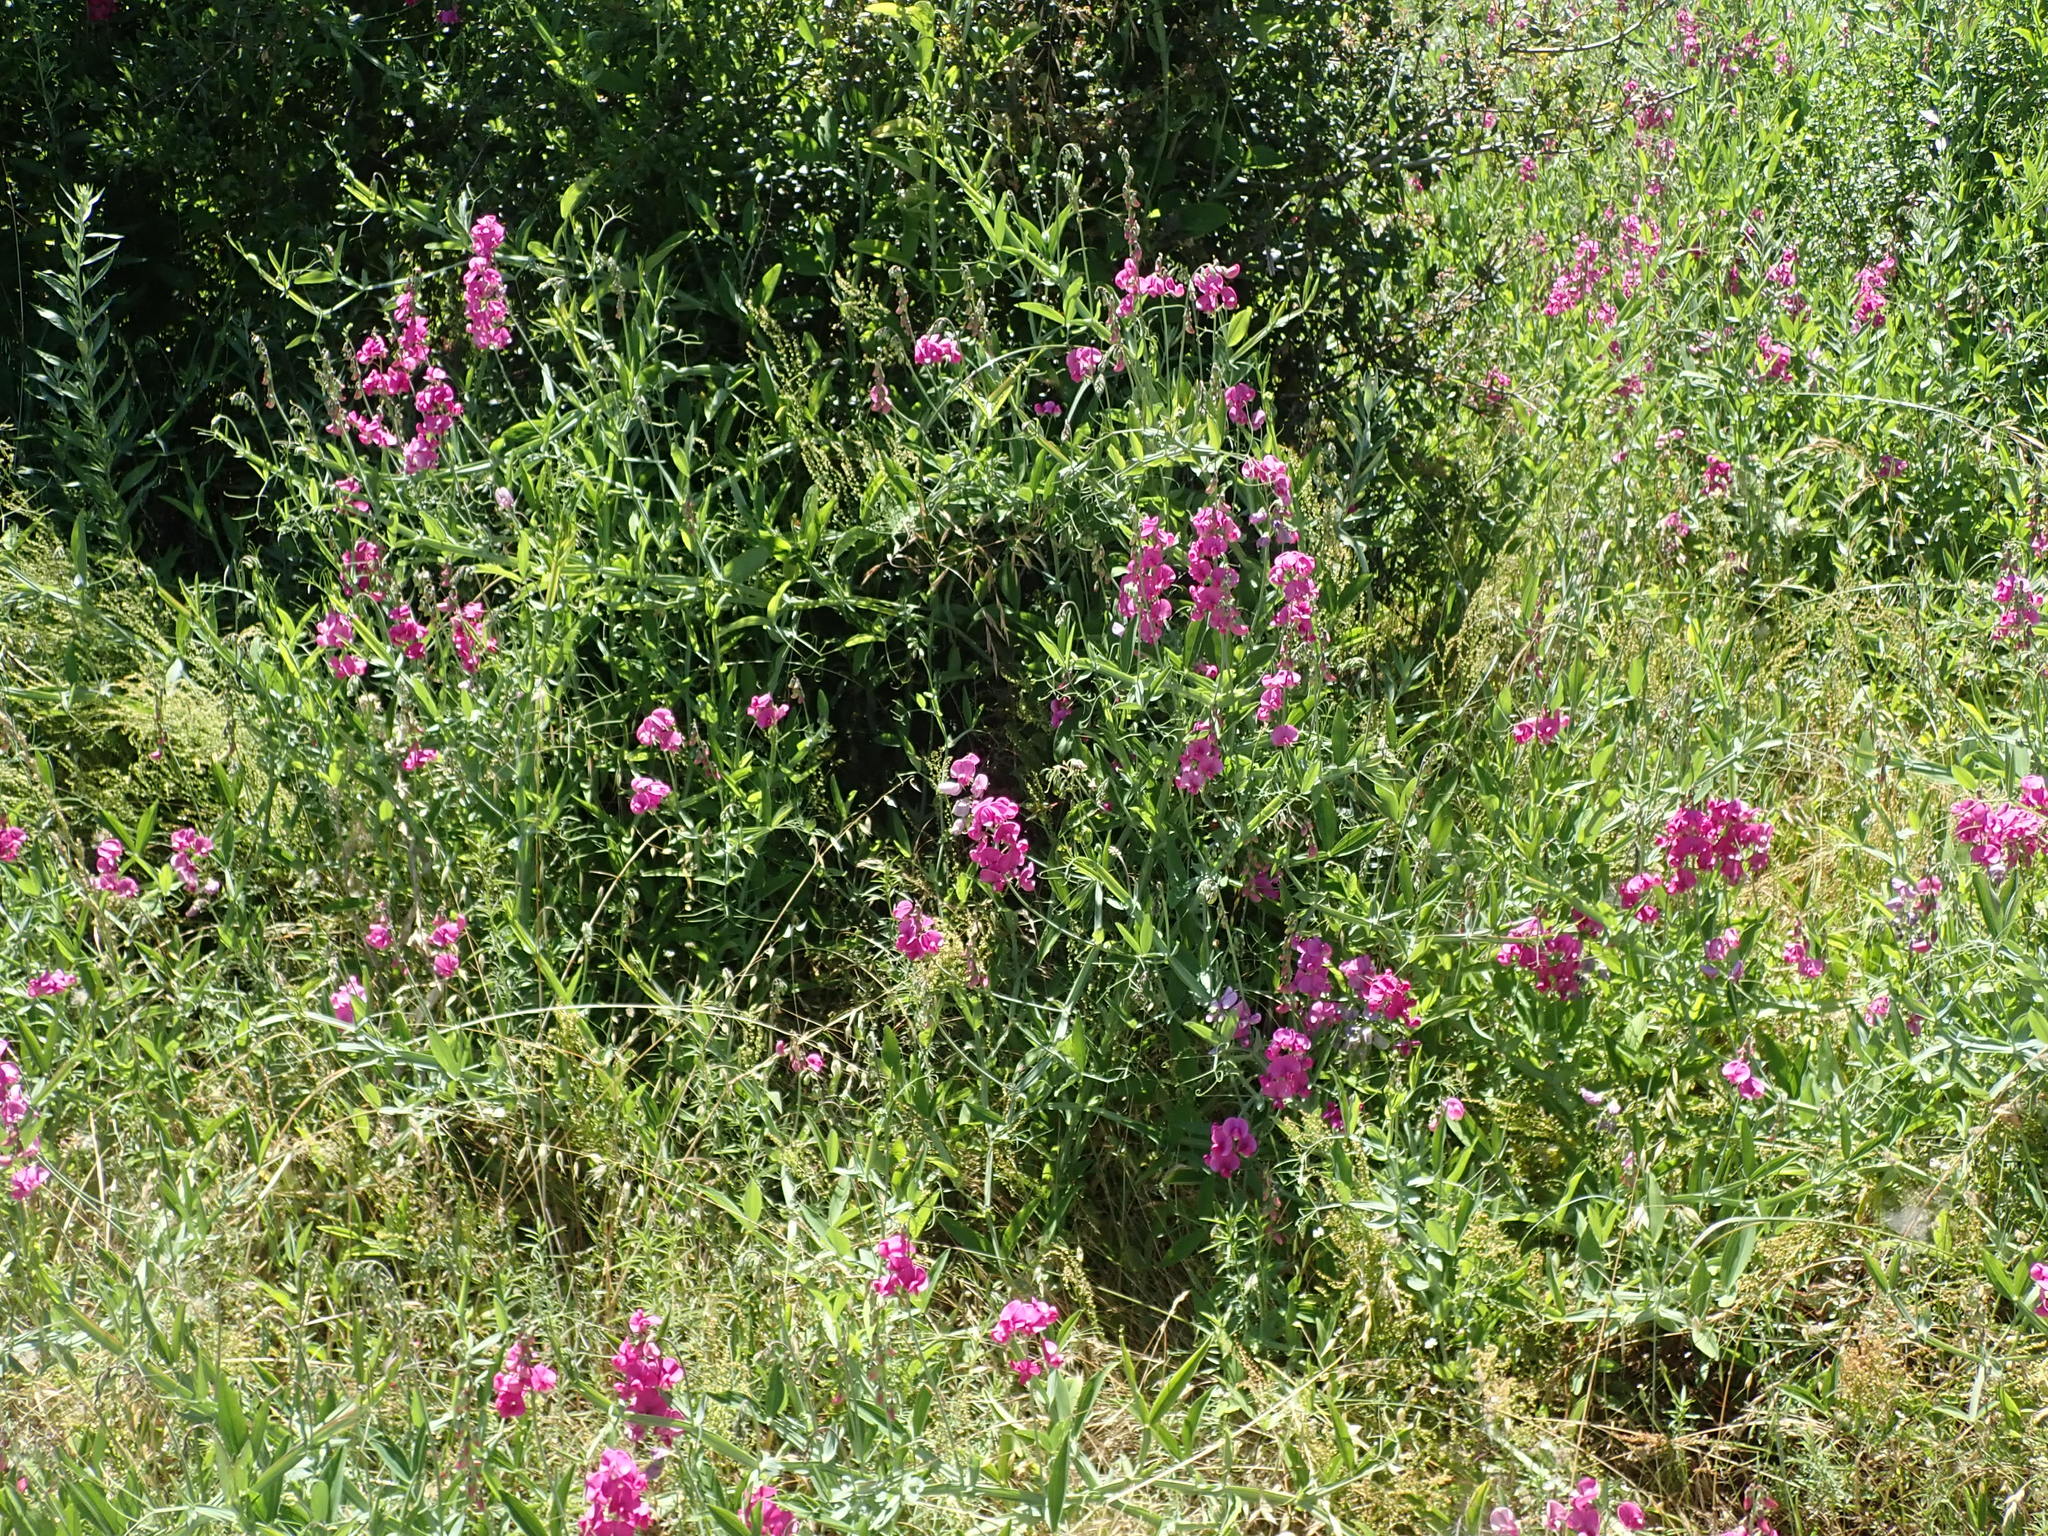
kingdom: Plantae
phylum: Tracheophyta
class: Magnoliopsida
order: Fabales
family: Fabaceae
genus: Lathyrus
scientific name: Lathyrus latifolius
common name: Perennial pea
